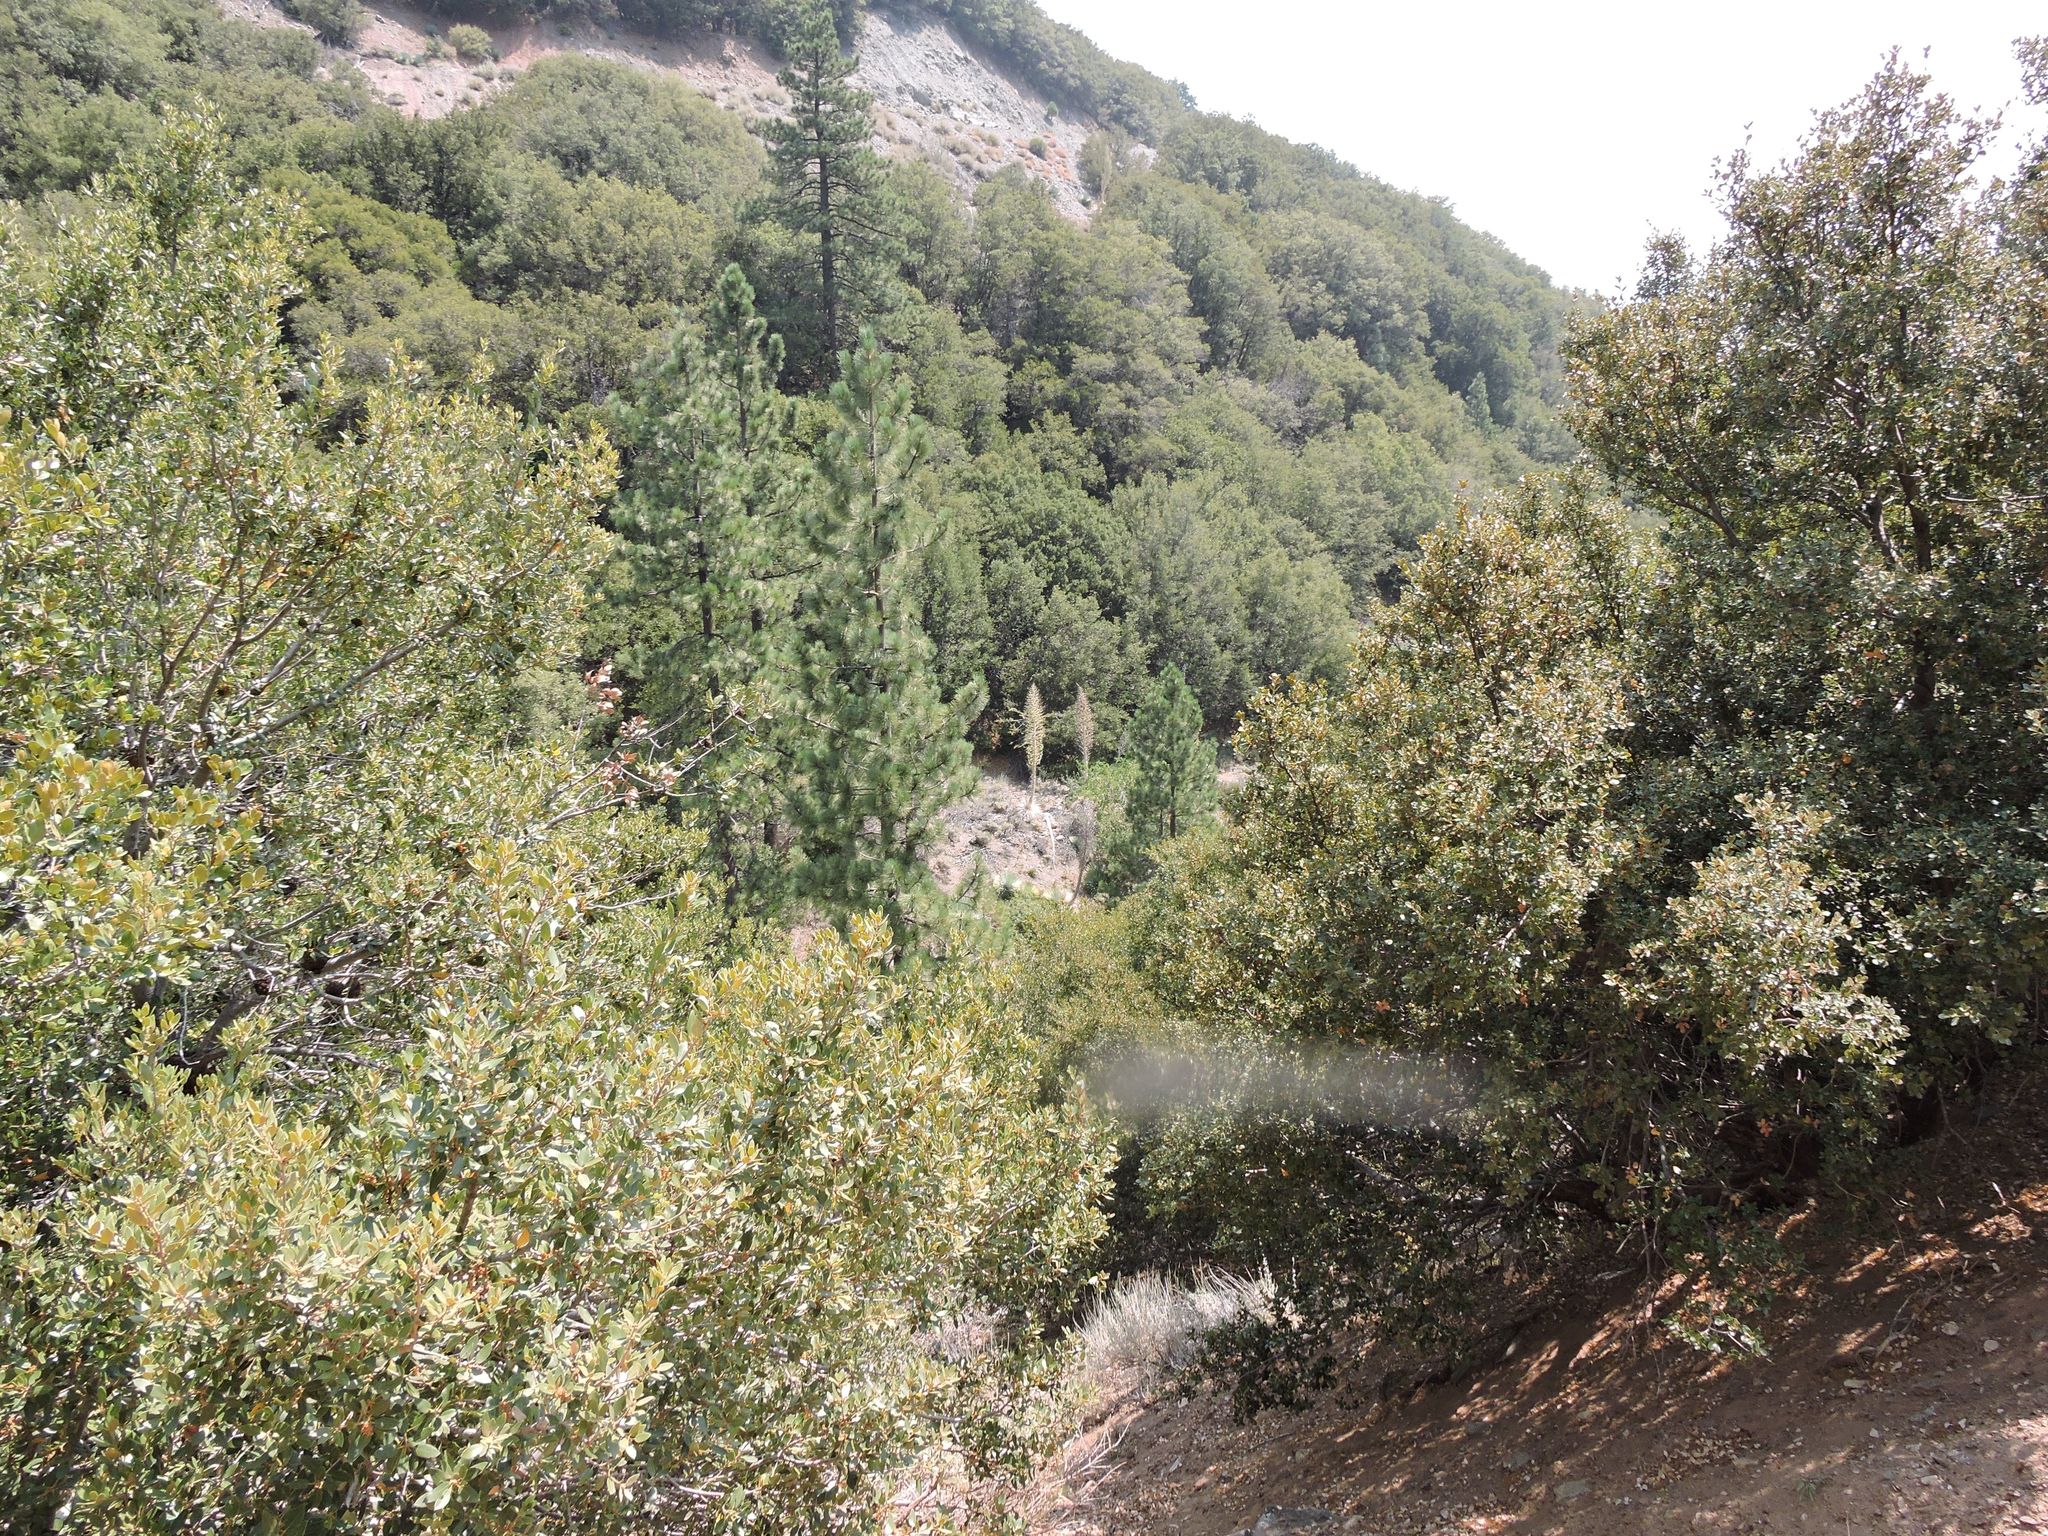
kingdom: Plantae
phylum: Tracheophyta
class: Liliopsida
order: Asparagales
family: Asparagaceae
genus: Hesperoyucca
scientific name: Hesperoyucca whipplei
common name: Our lord's-candle
